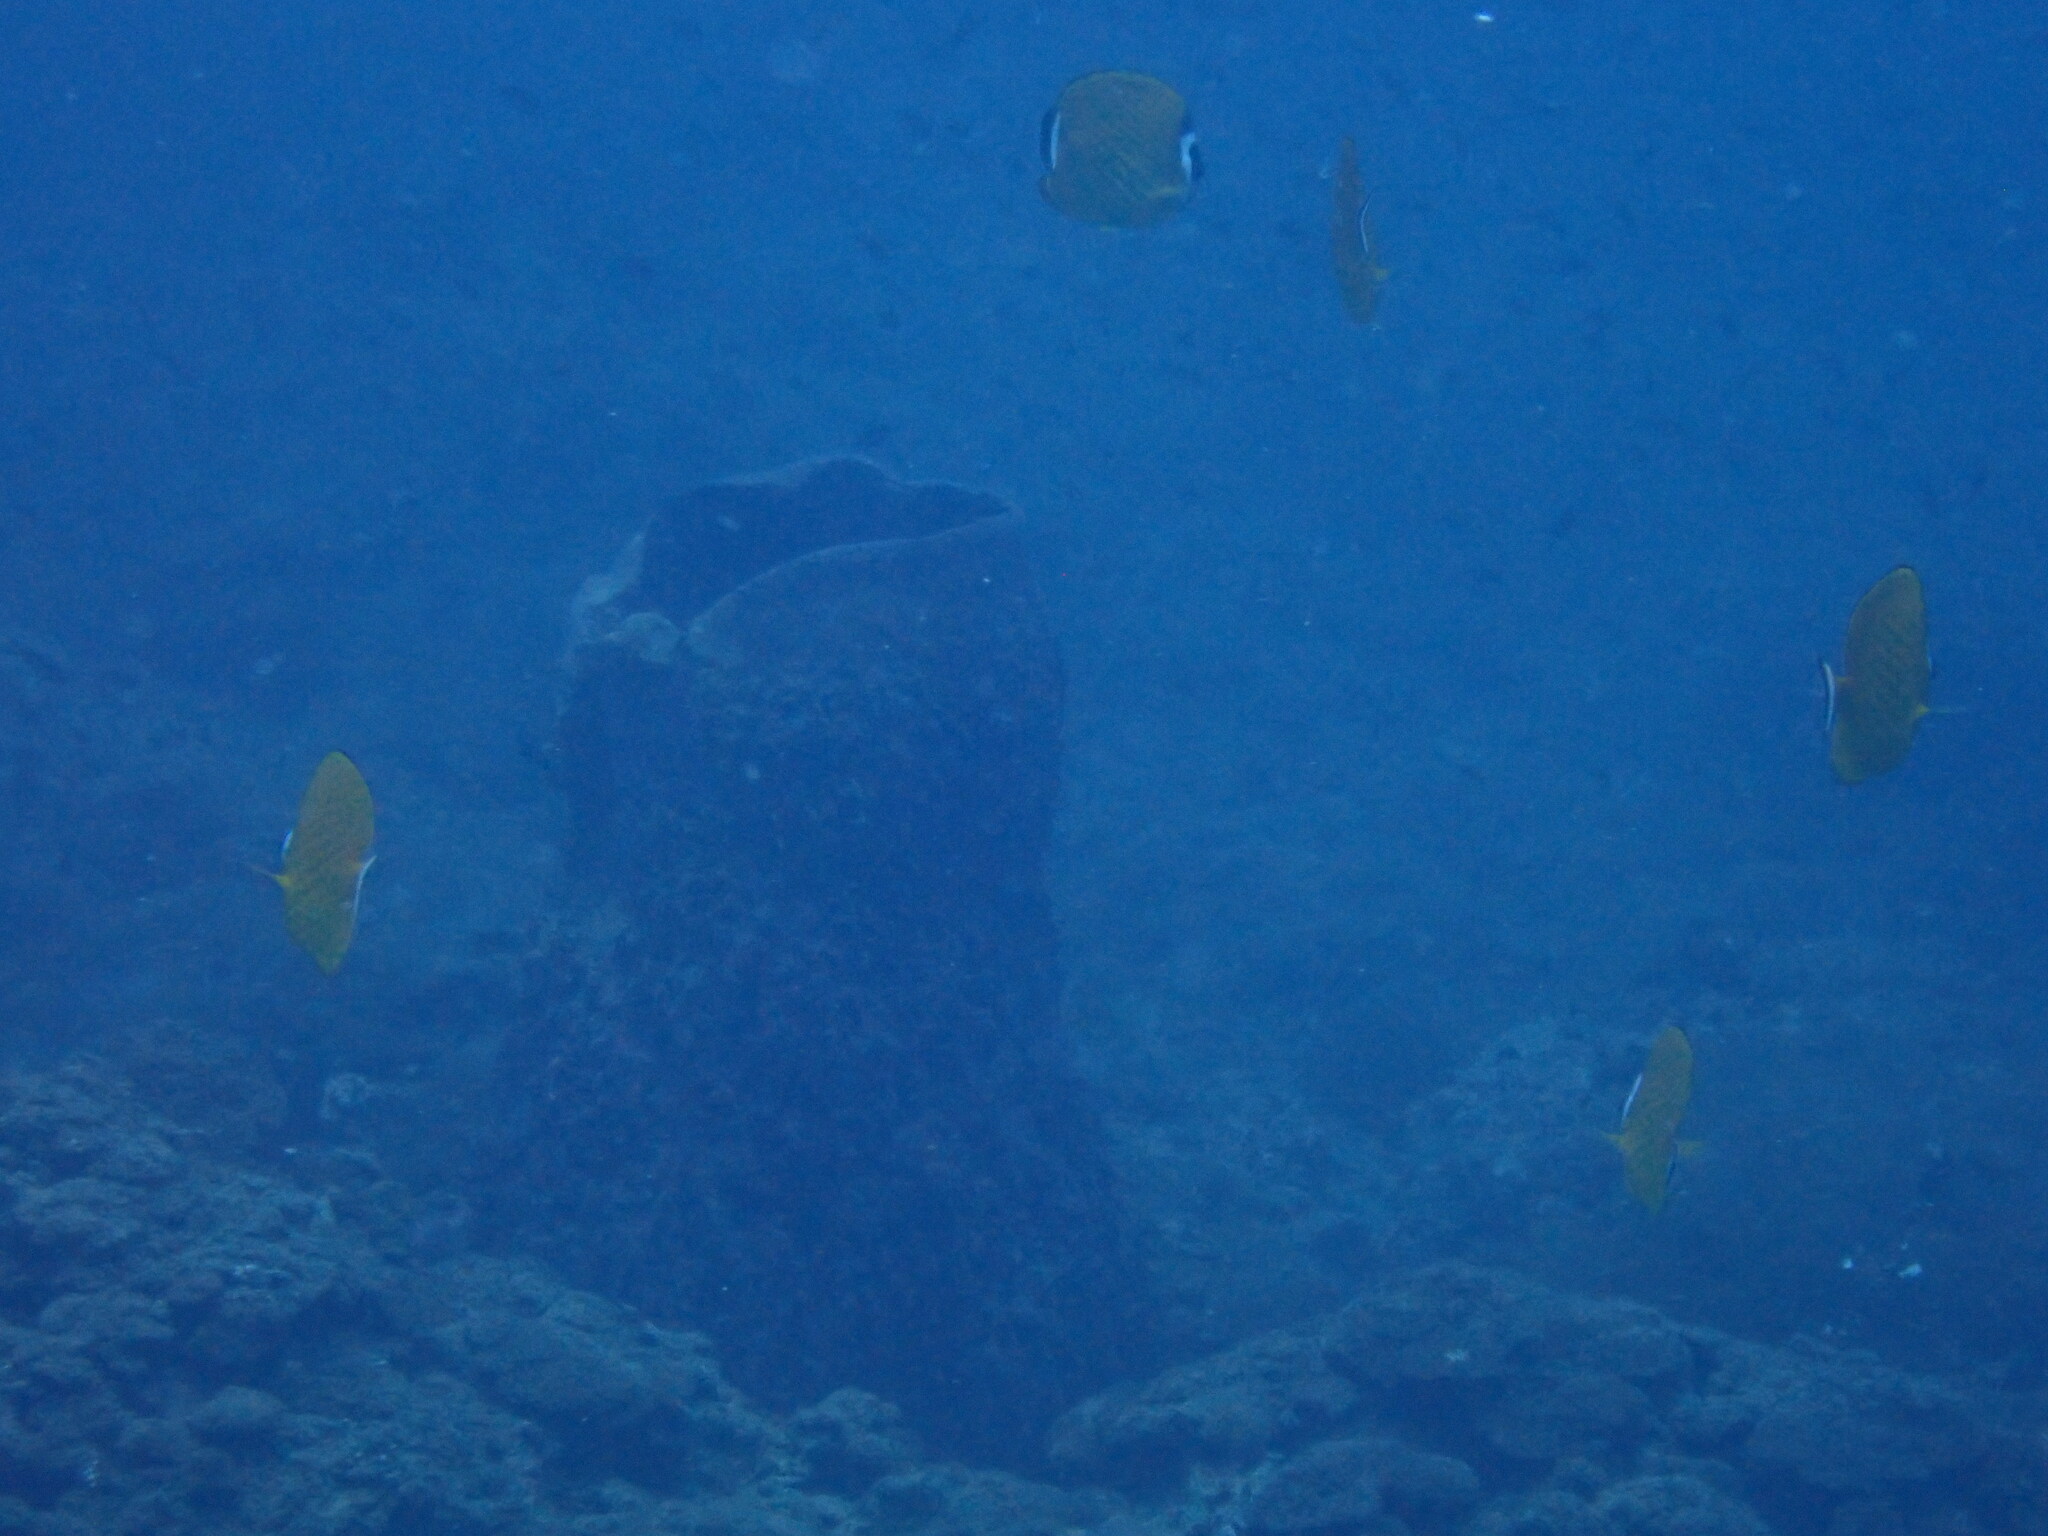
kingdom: Animalia
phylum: Chordata
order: Perciformes
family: Chaetodontidae
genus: Chaetodon
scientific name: Chaetodon wiebeli
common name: Butterflyfish
